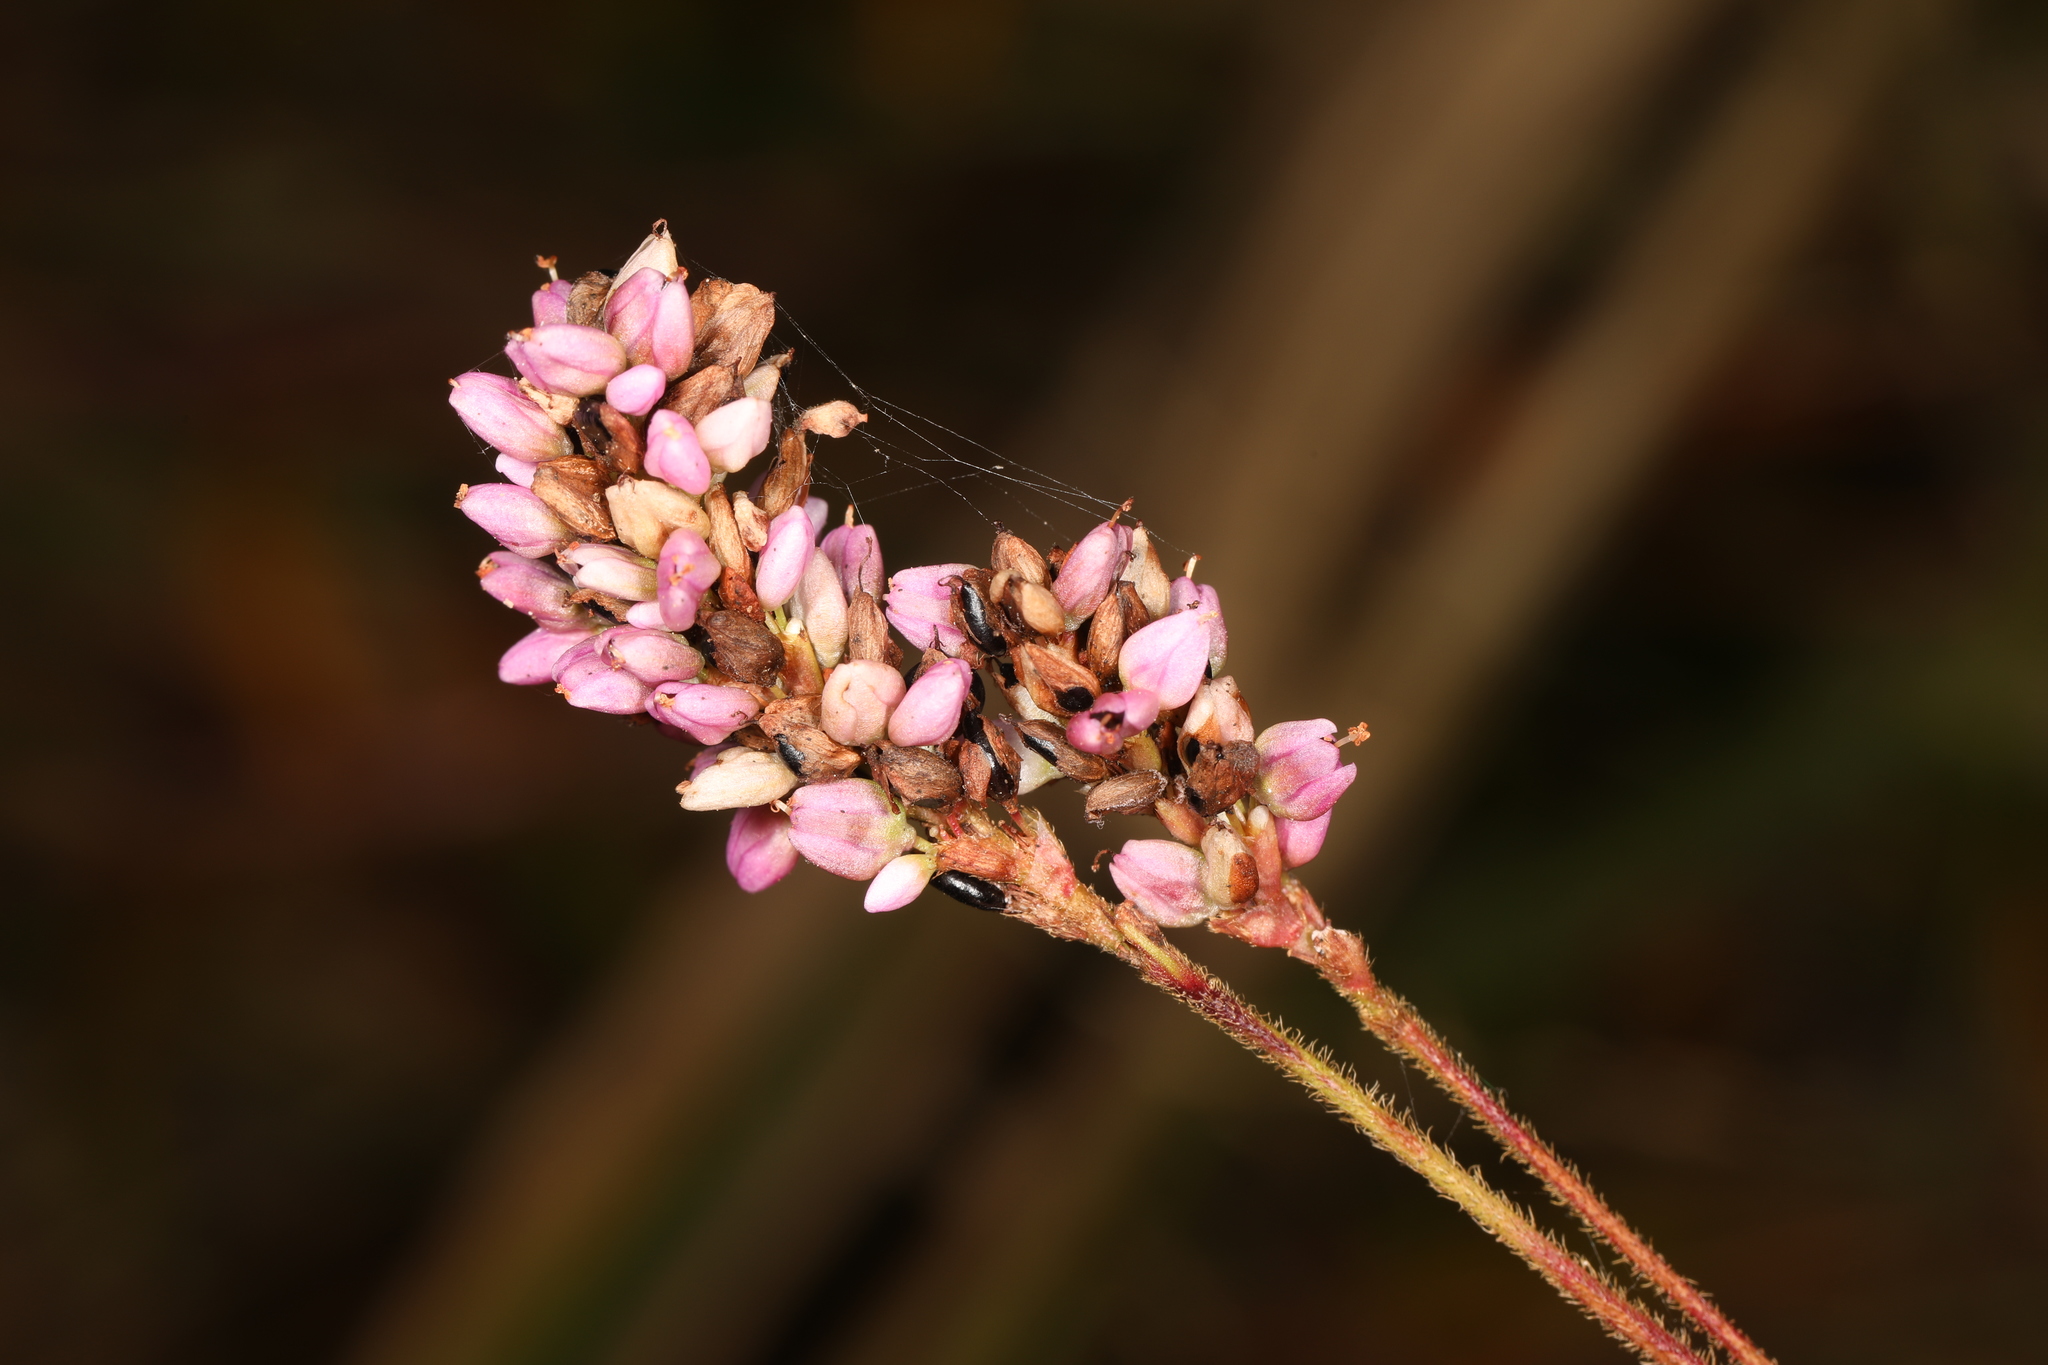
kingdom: Plantae
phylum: Tracheophyta
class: Magnoliopsida
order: Caryophyllales
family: Polygonaceae
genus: Persicaria
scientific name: Persicaria pensylvanica
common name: Pinkweed
